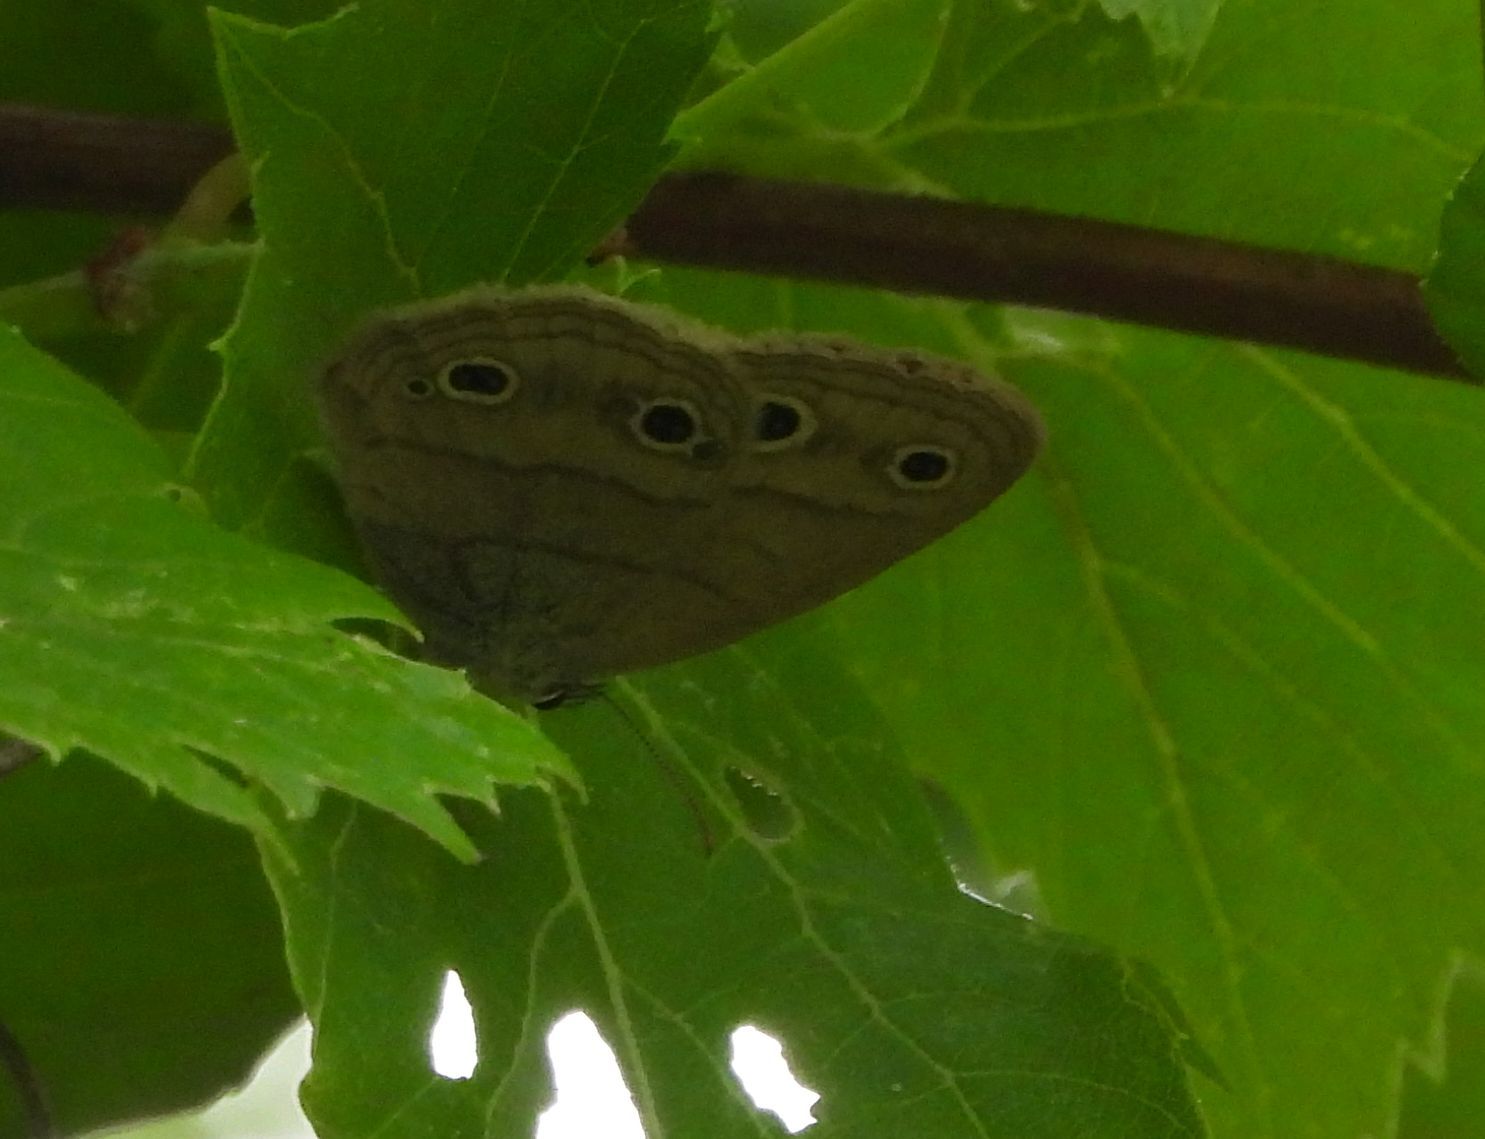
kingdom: Animalia
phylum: Arthropoda
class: Insecta
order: Lepidoptera
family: Nymphalidae
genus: Euptychia
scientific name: Euptychia cymela
